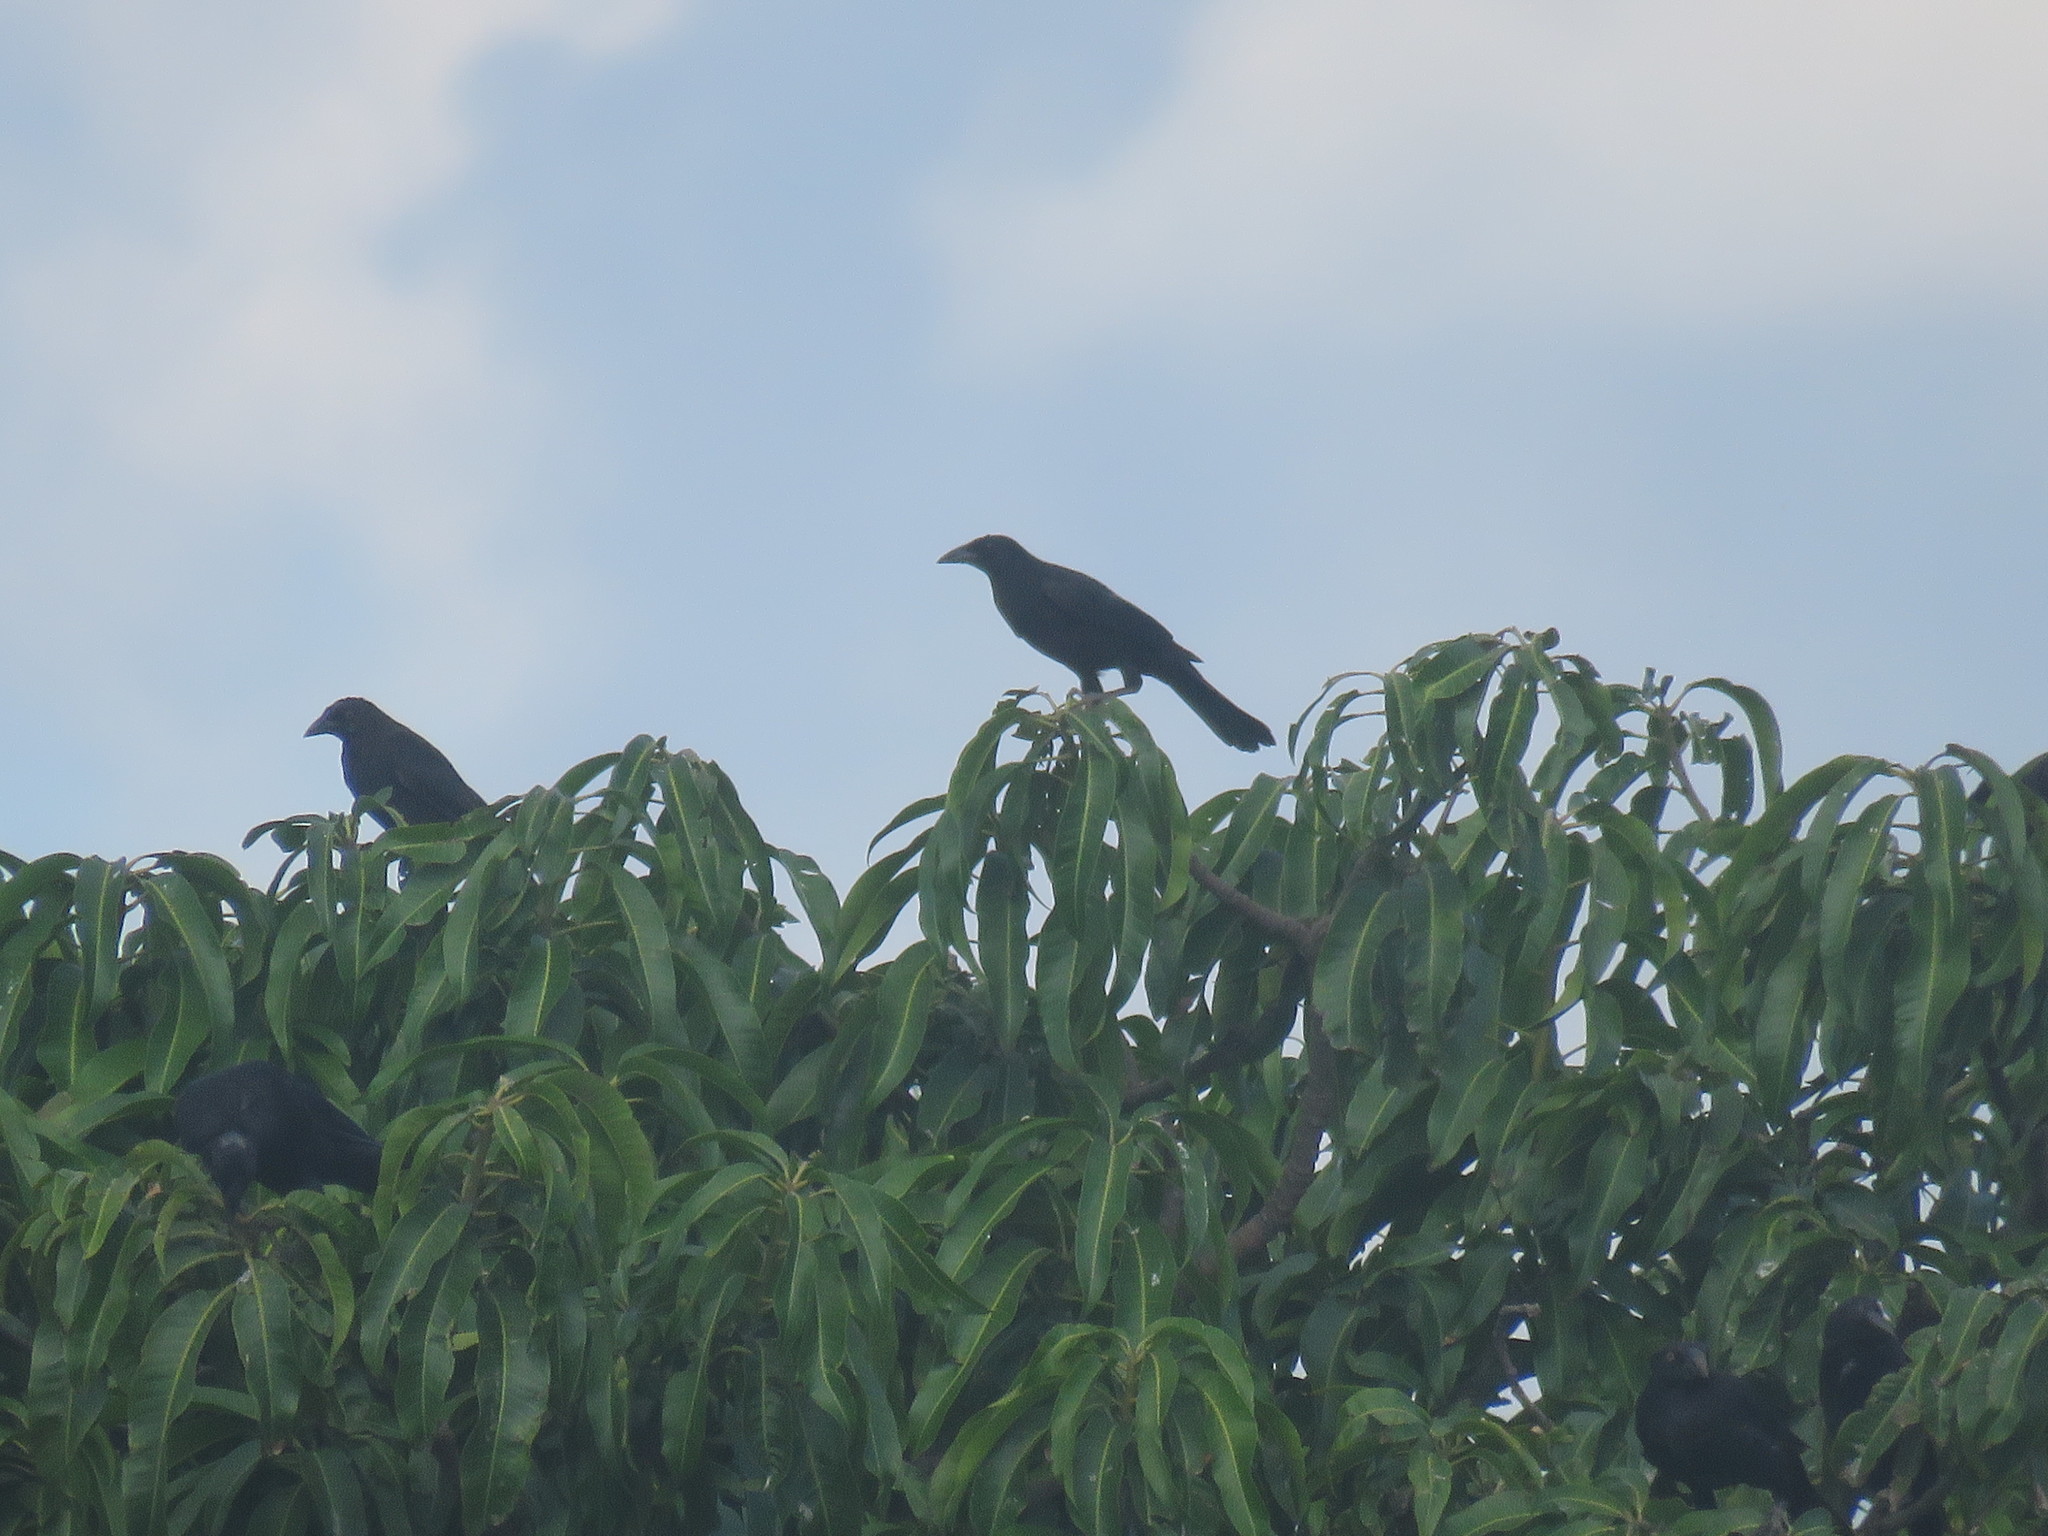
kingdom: Animalia
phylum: Chordata
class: Aves
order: Passeriformes
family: Icteridae
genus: Molothrus
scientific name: Molothrus oryzivorus
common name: Giant cowbird
